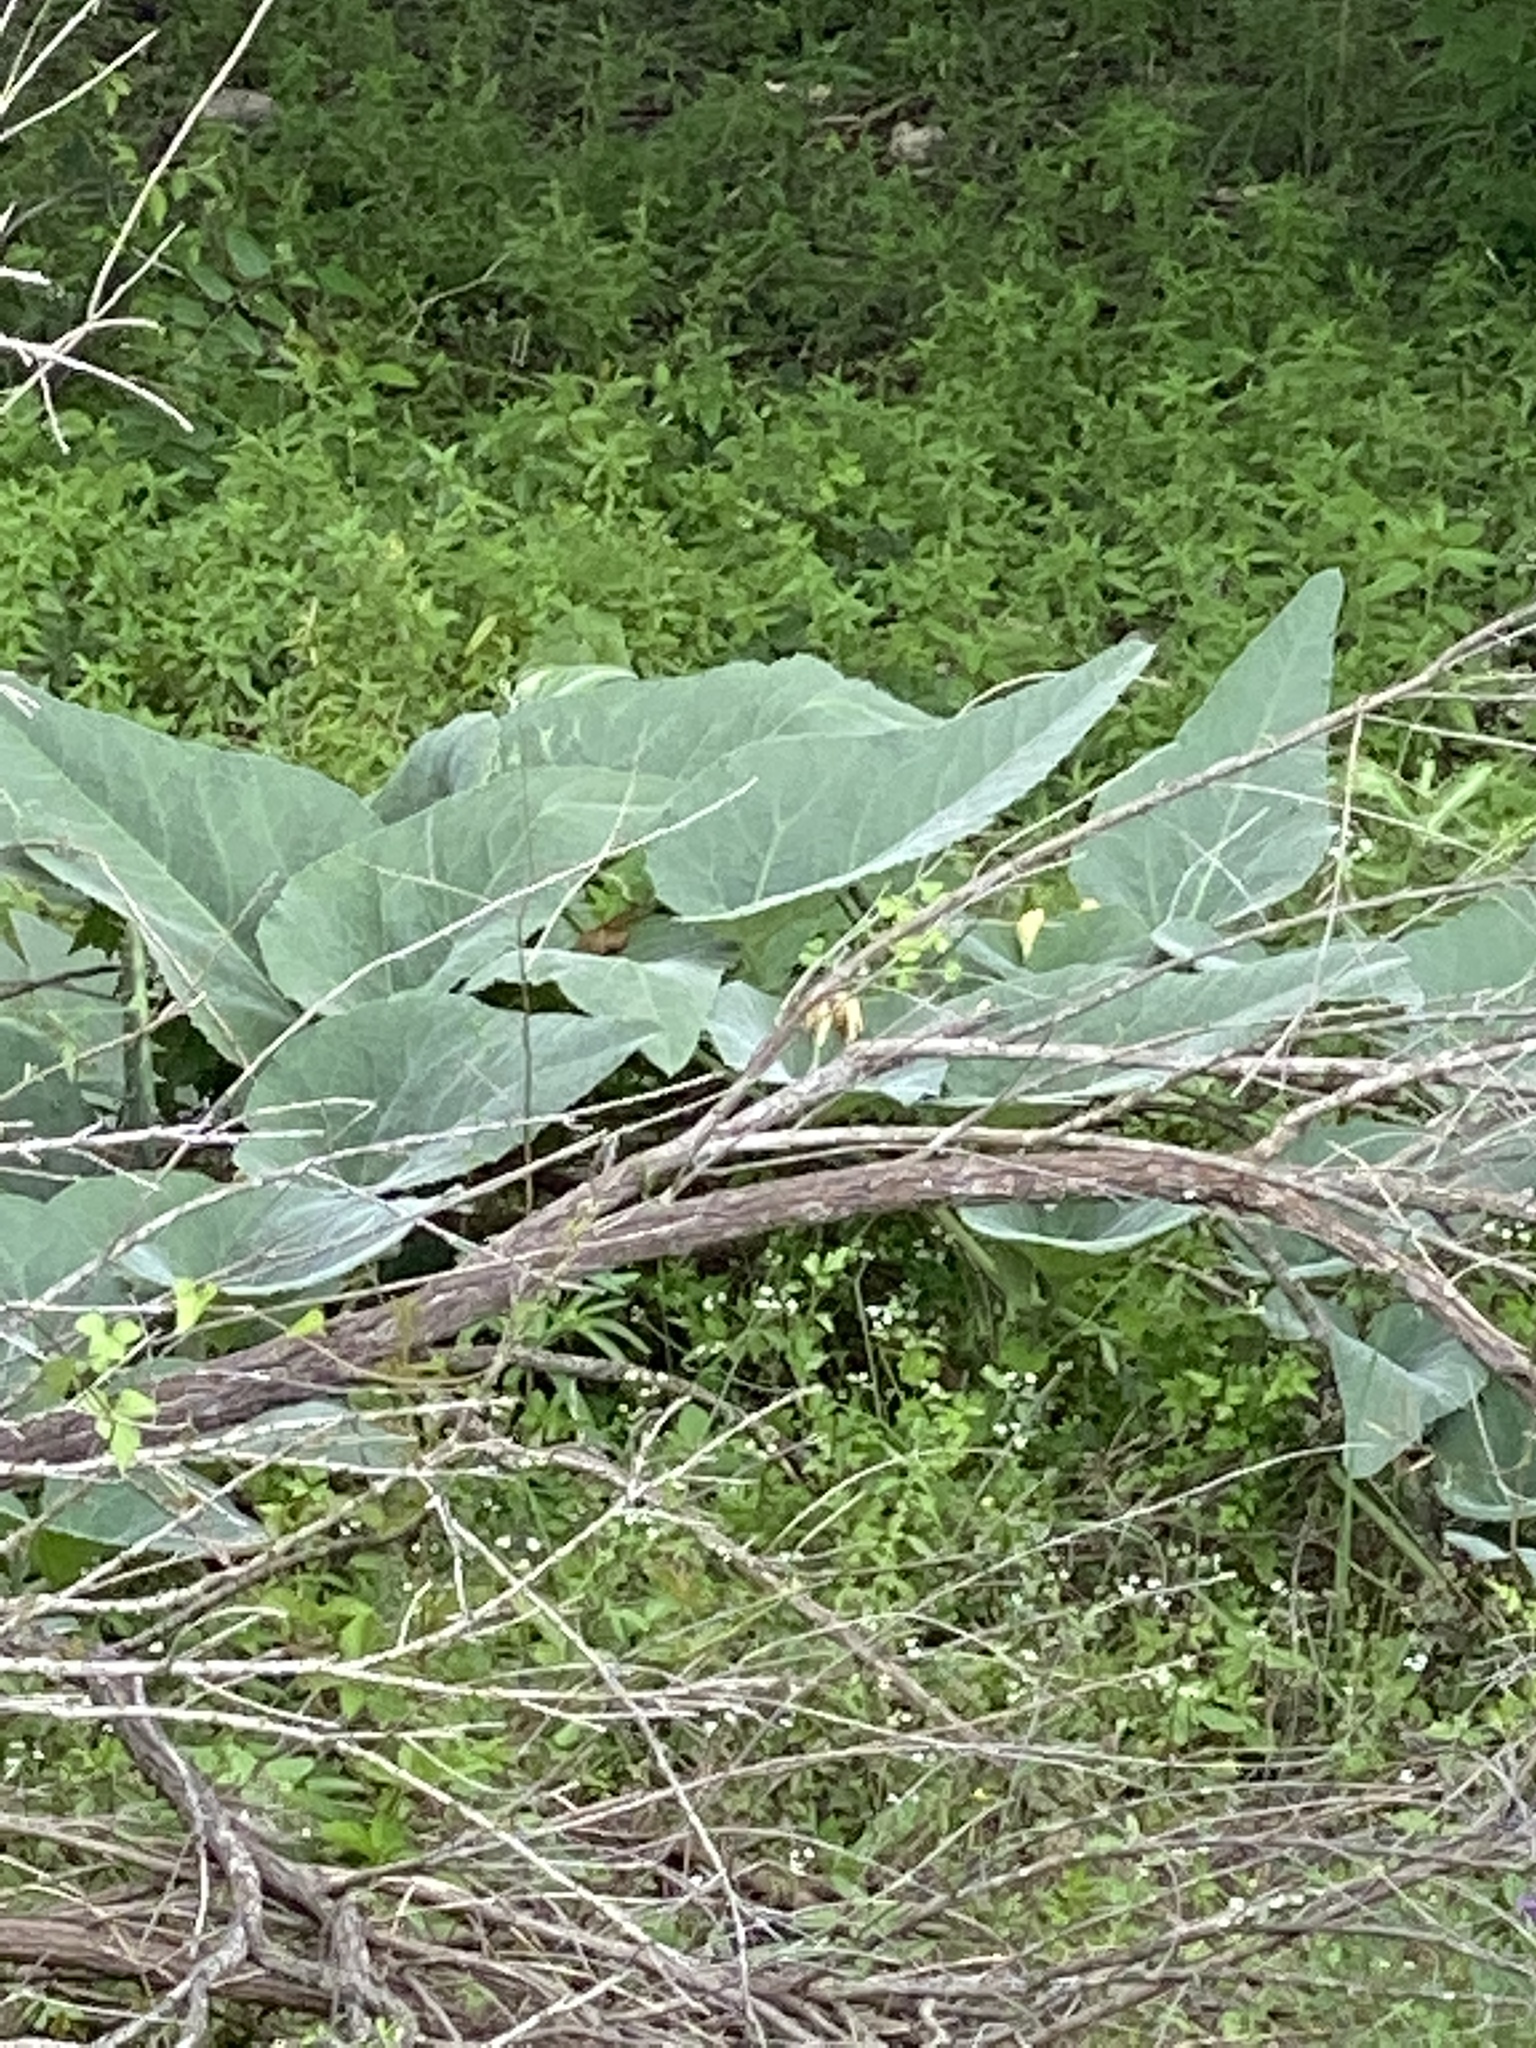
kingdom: Plantae
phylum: Tracheophyta
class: Magnoliopsida
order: Cucurbitales
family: Cucurbitaceae
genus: Cucurbita
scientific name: Cucurbita foetidissima
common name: Buffalo gourd
